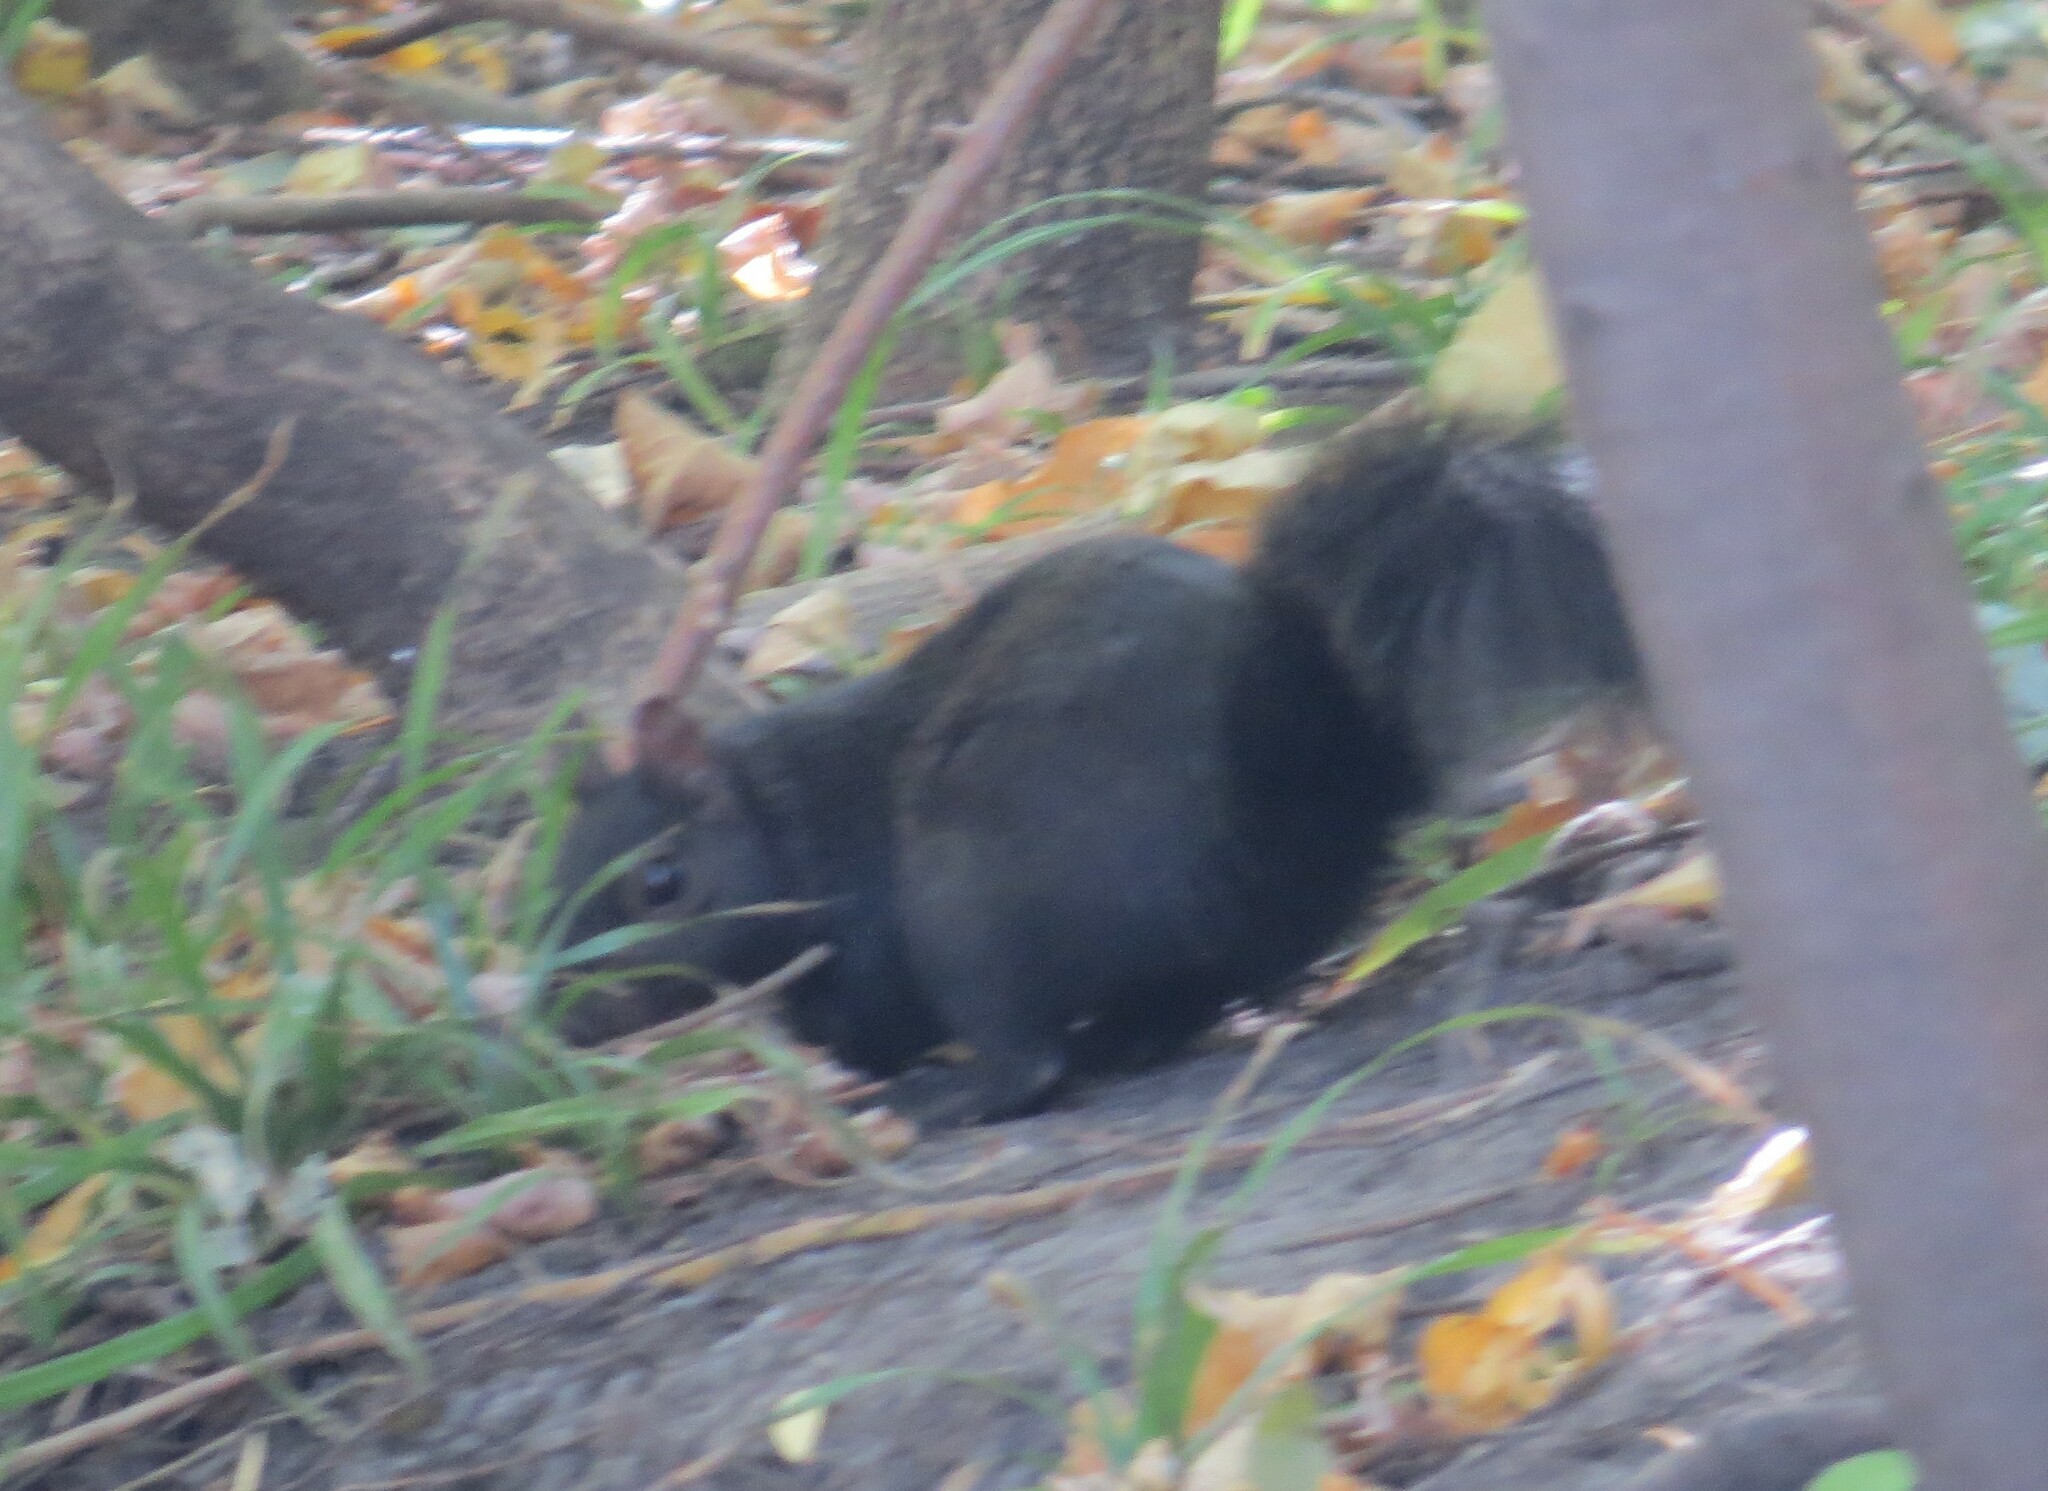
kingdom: Animalia
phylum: Chordata
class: Mammalia
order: Rodentia
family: Sciuridae
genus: Sciurus
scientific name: Sciurus carolinensis
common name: Eastern gray squirrel
